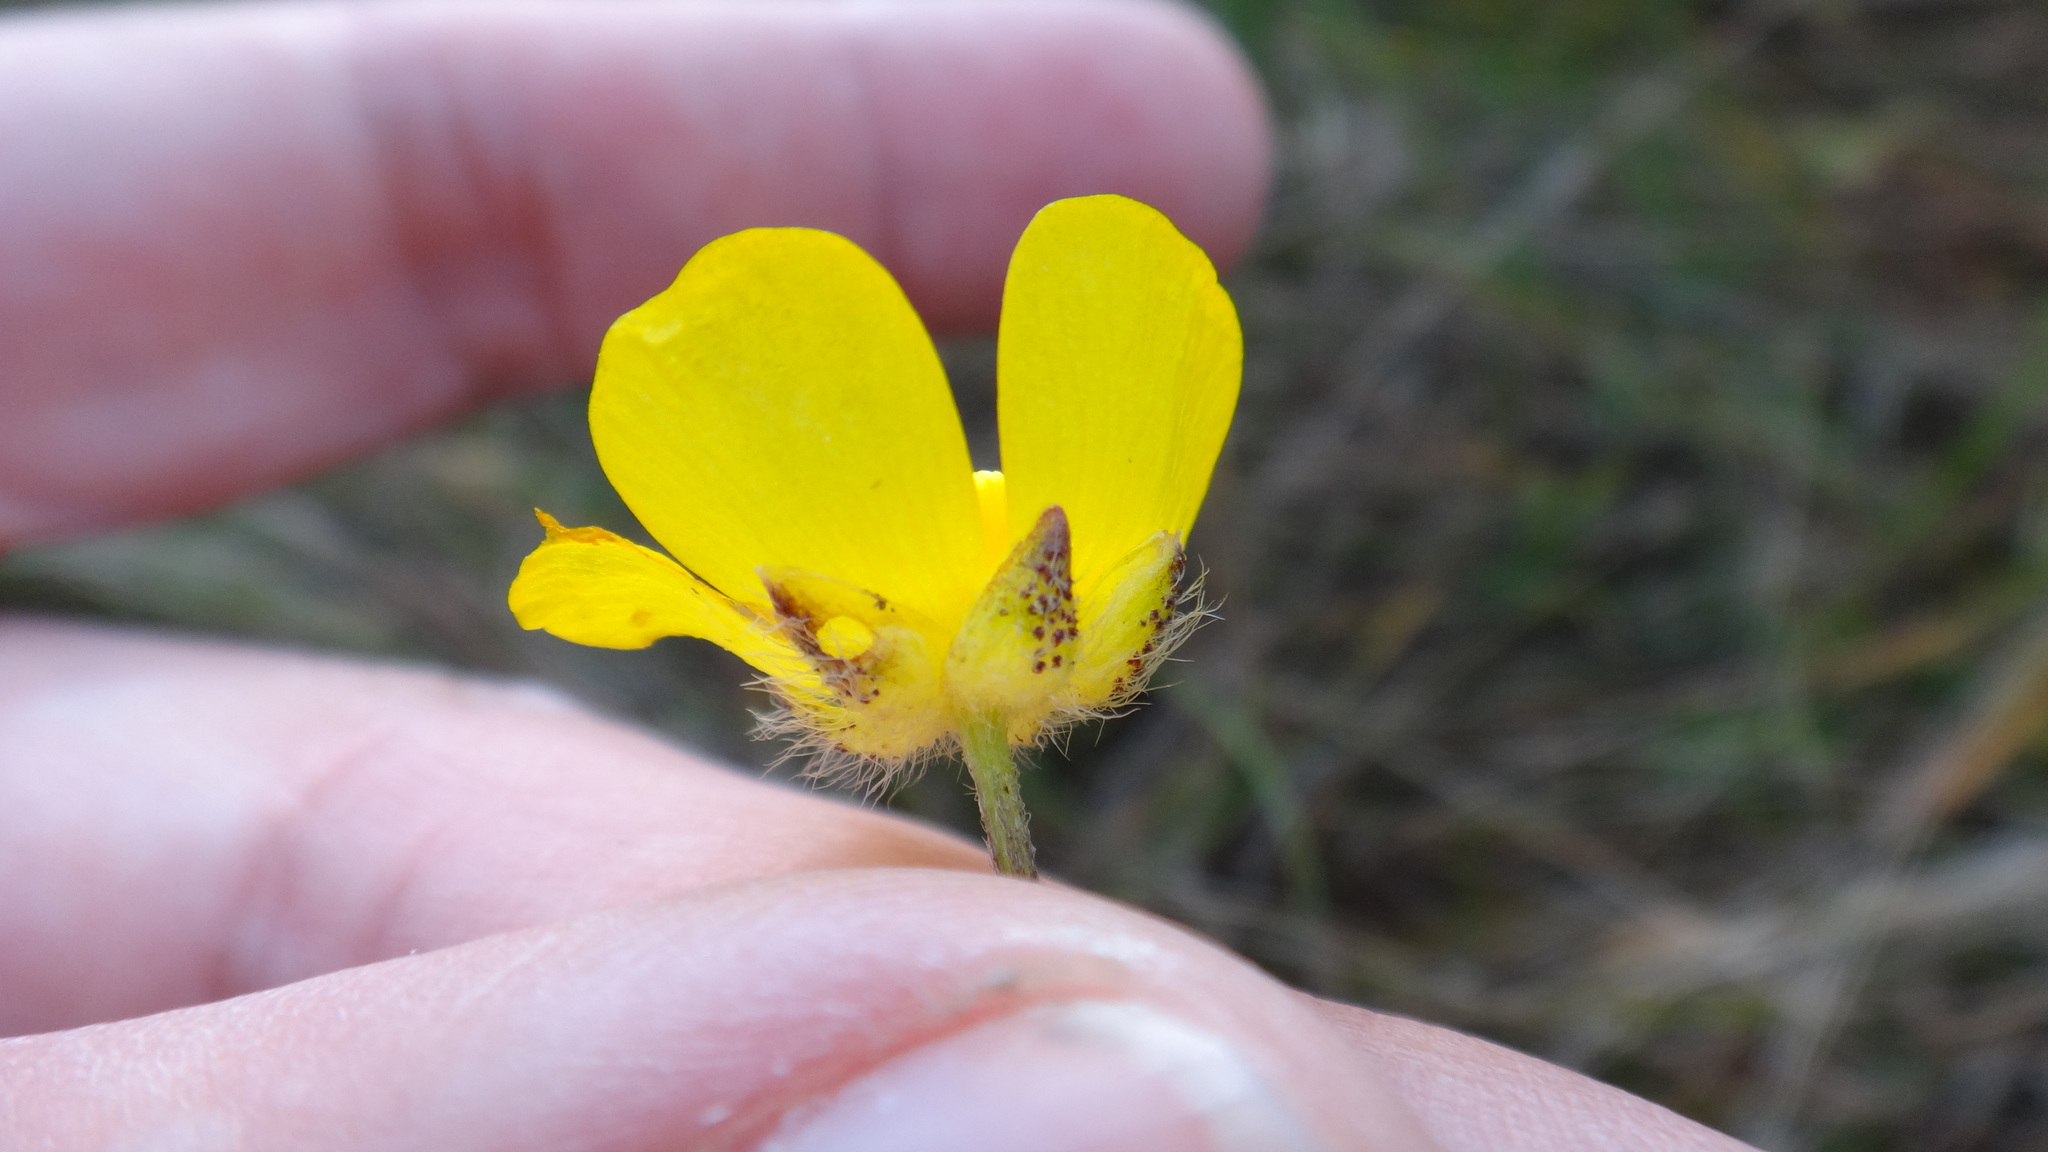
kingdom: Plantae
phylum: Tracheophyta
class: Magnoliopsida
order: Ranunculales
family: Ranunculaceae
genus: Ranunculus
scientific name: Ranunculus polyanthemos
